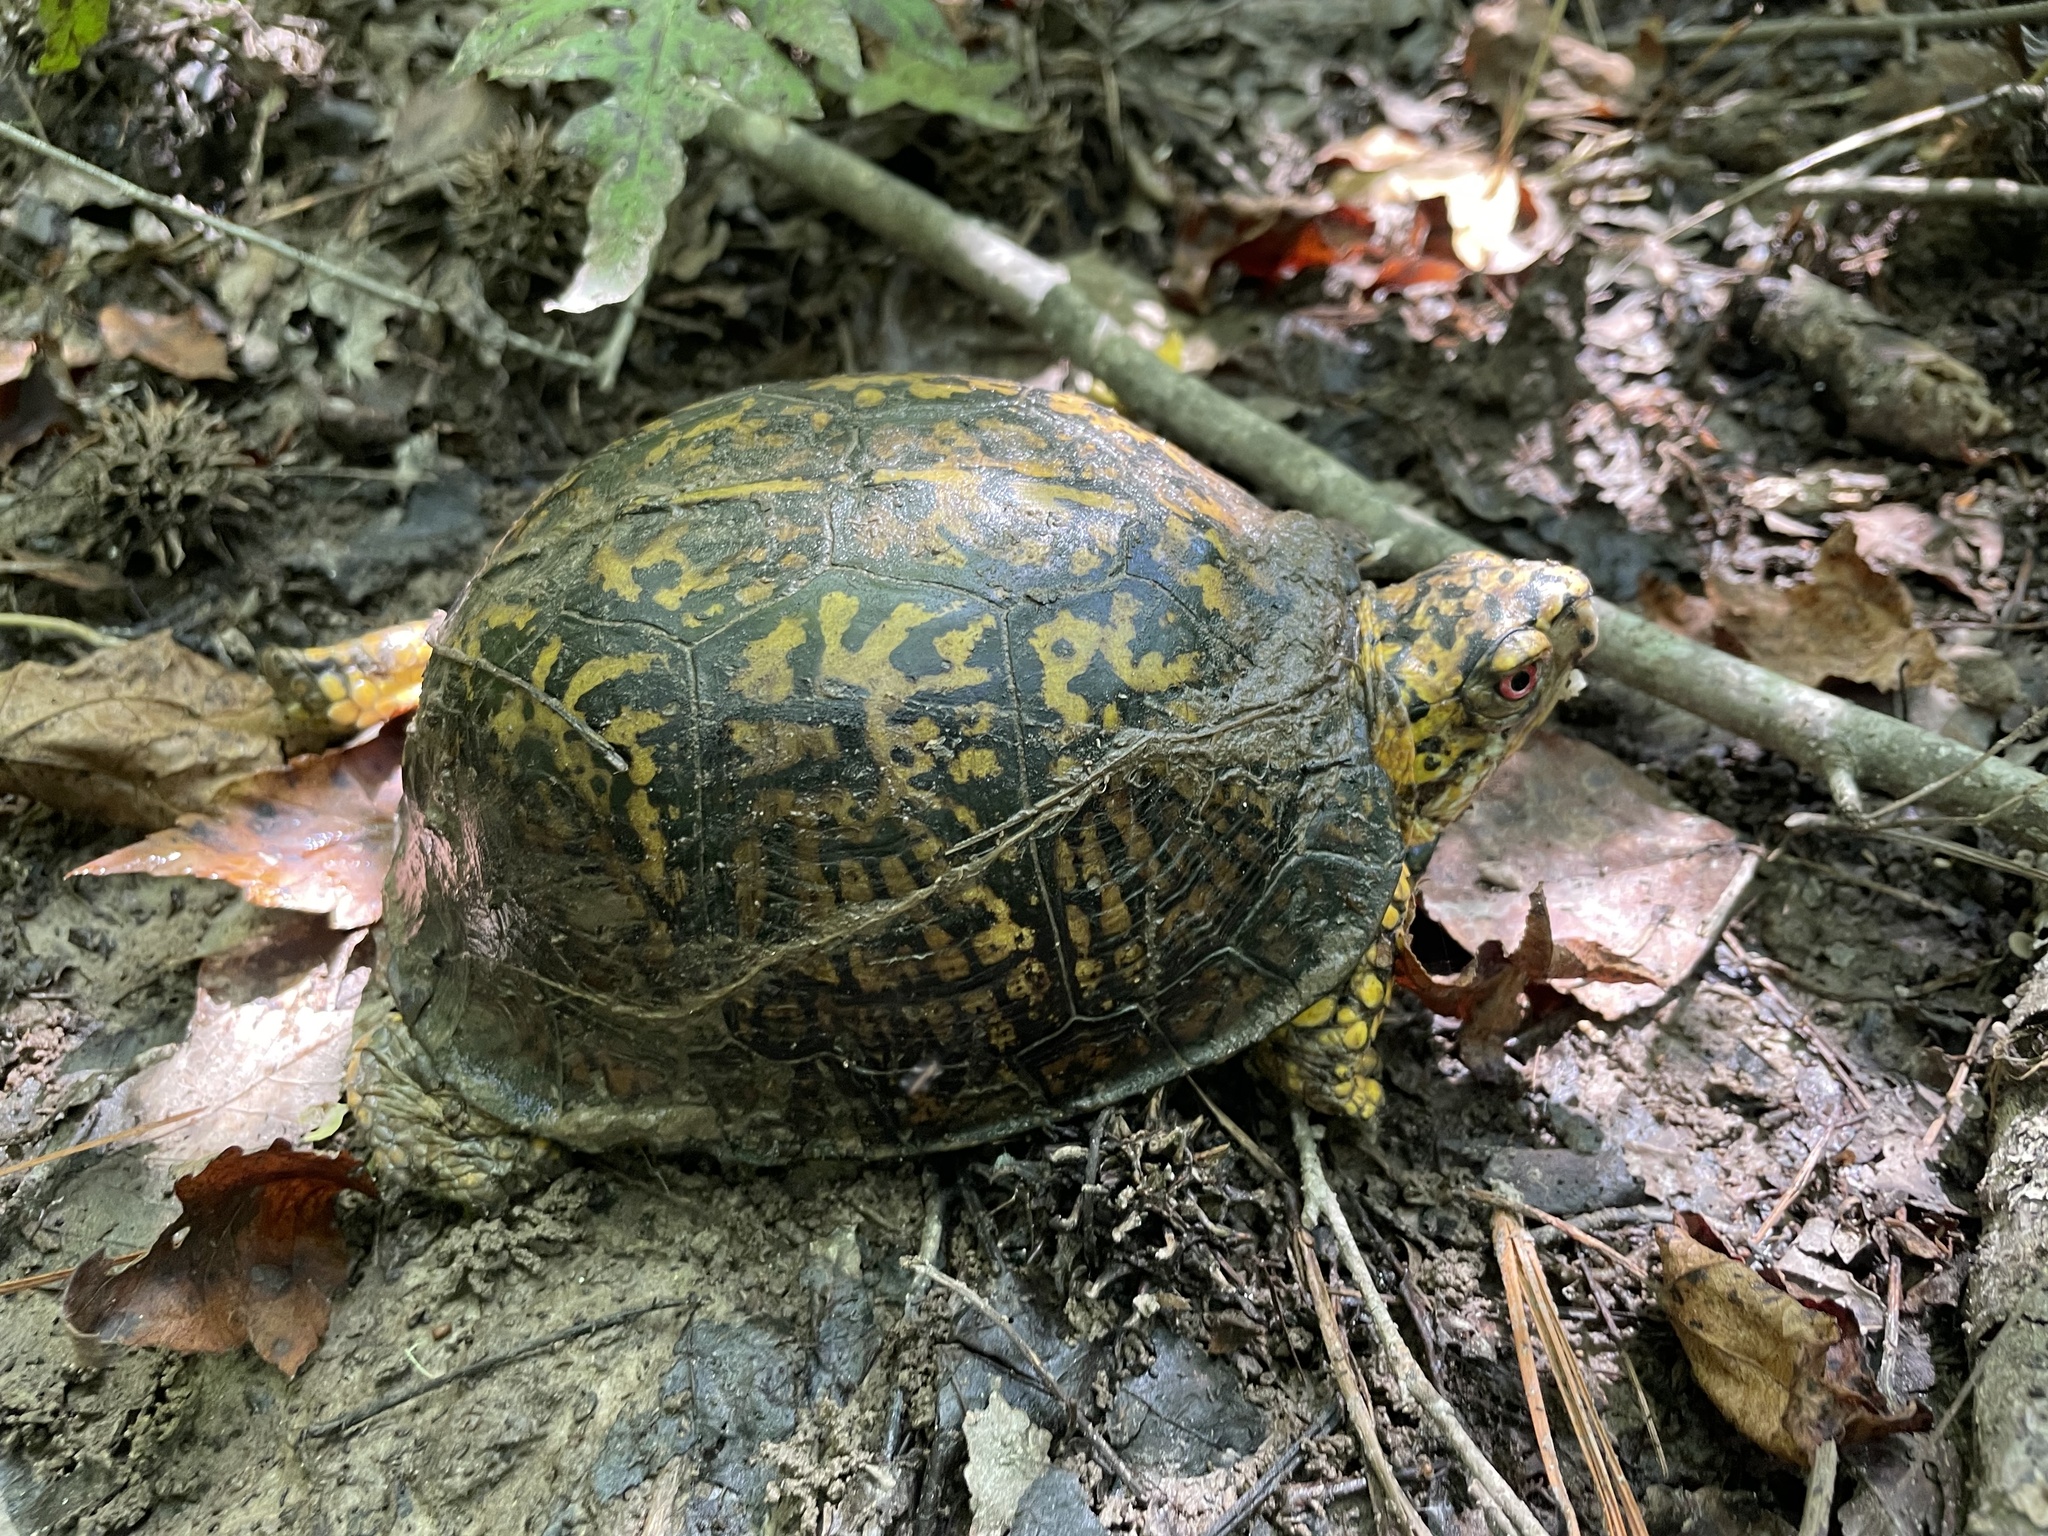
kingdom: Animalia
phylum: Chordata
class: Testudines
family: Emydidae
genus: Terrapene
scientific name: Terrapene carolina
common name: Common box turtle
